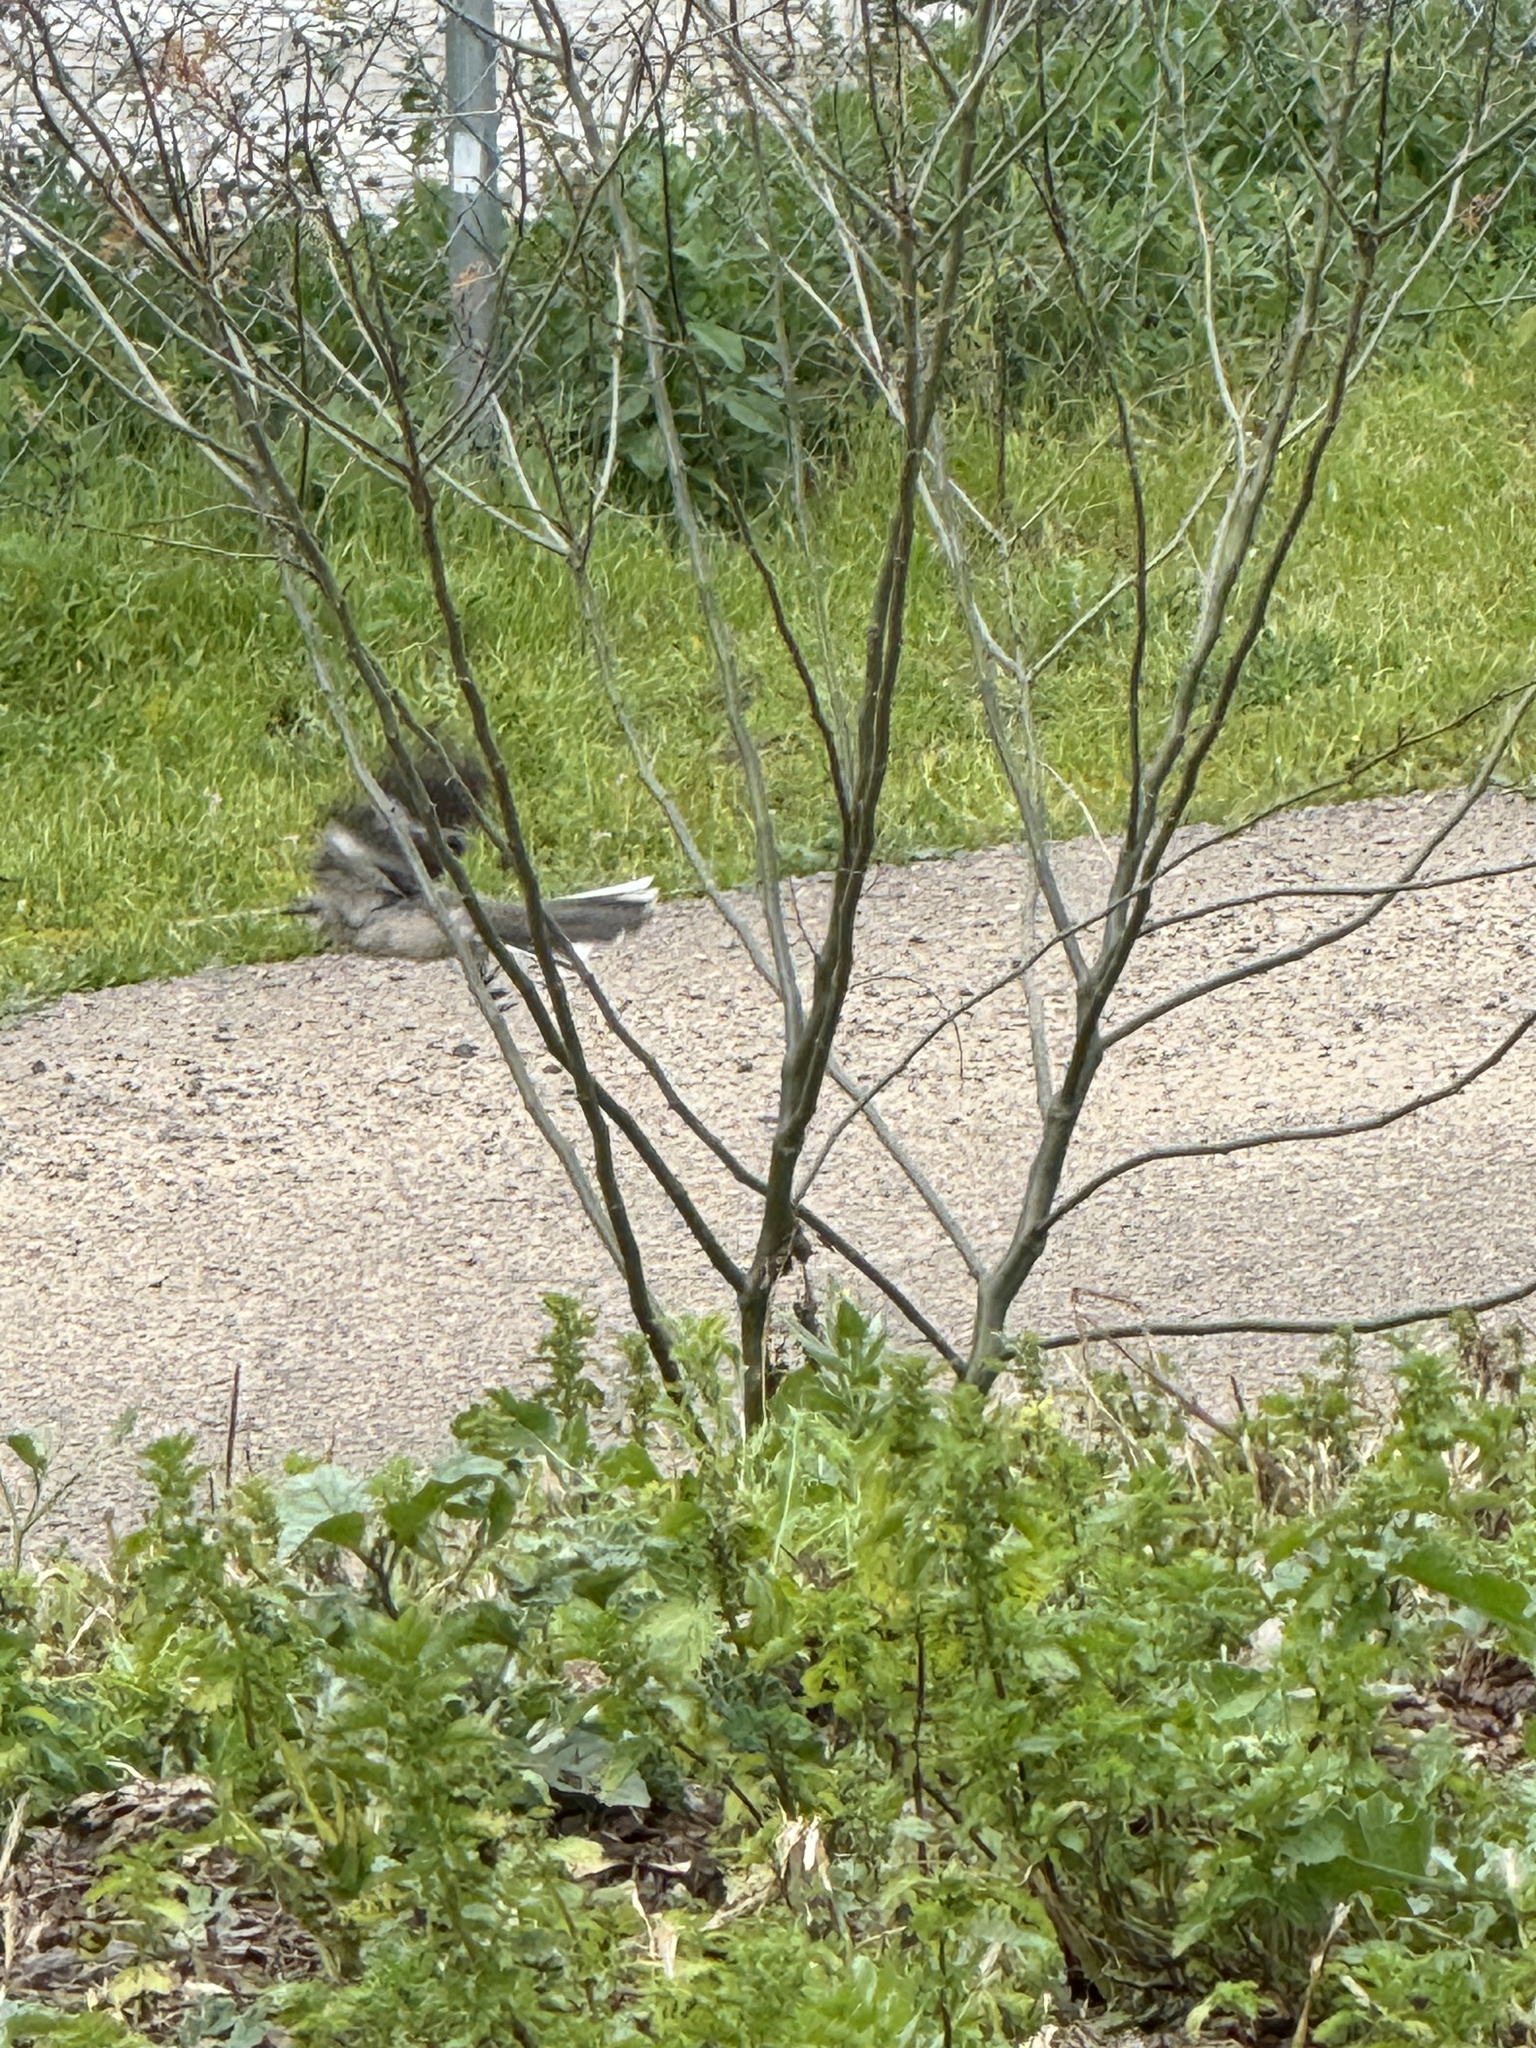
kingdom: Animalia
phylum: Chordata
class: Aves
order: Passeriformes
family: Mimidae
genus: Mimus
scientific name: Mimus polyglottos
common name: Northern mockingbird
